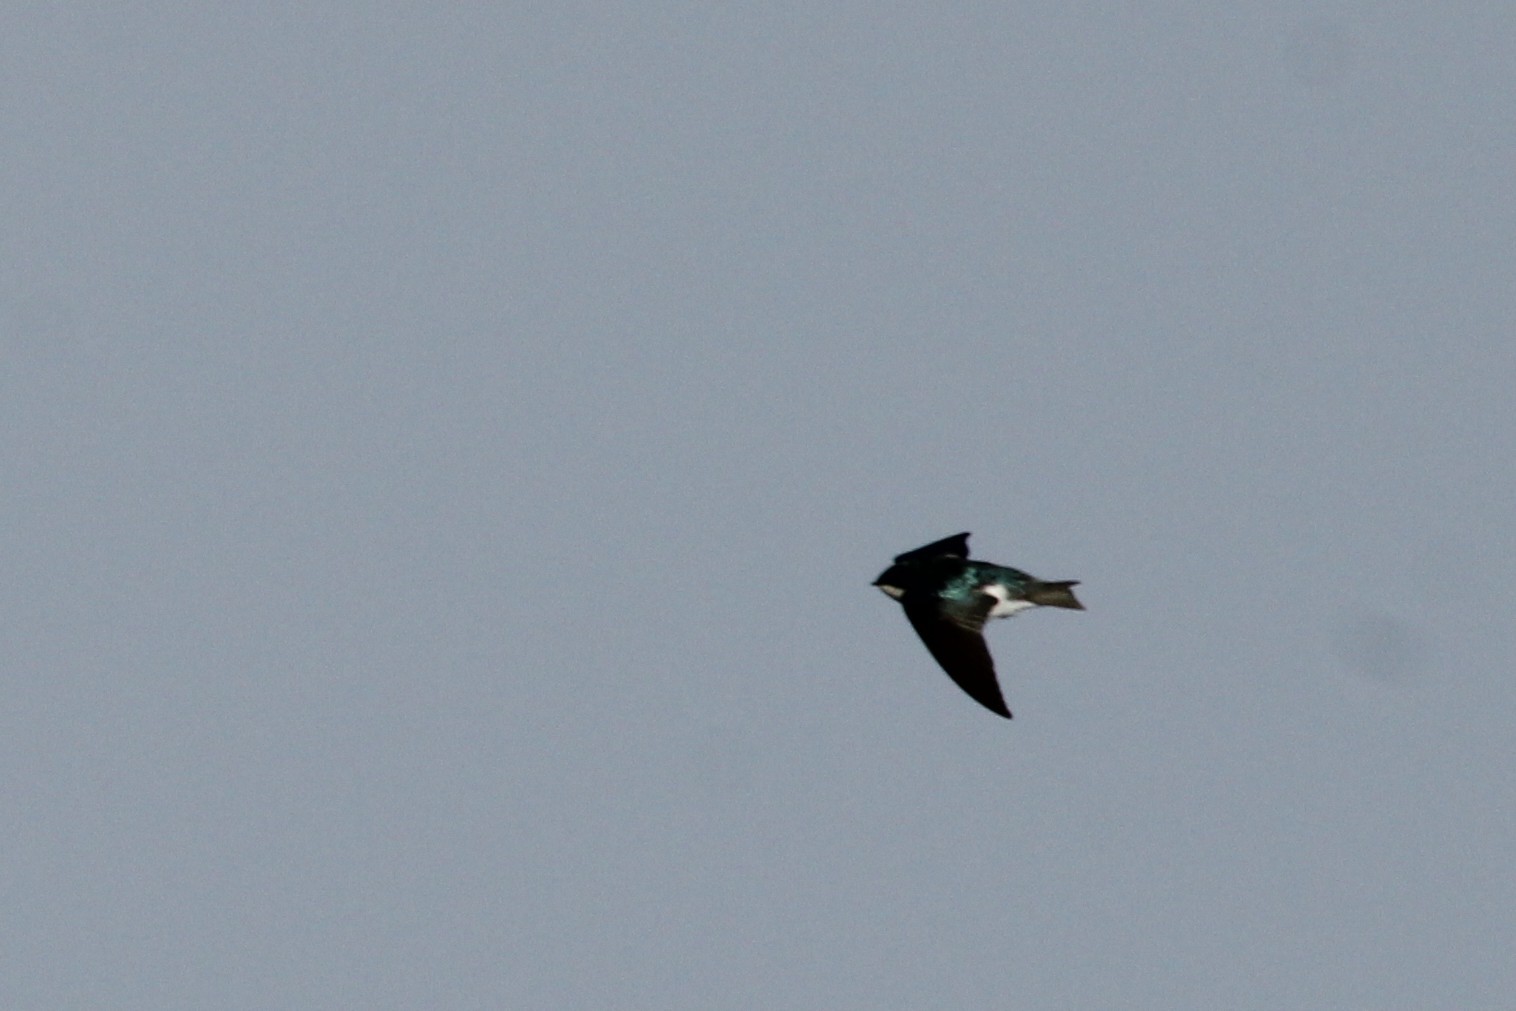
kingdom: Animalia
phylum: Chordata
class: Aves
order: Passeriformes
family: Hirundinidae
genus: Tachycineta
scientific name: Tachycineta bicolor
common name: Tree swallow
